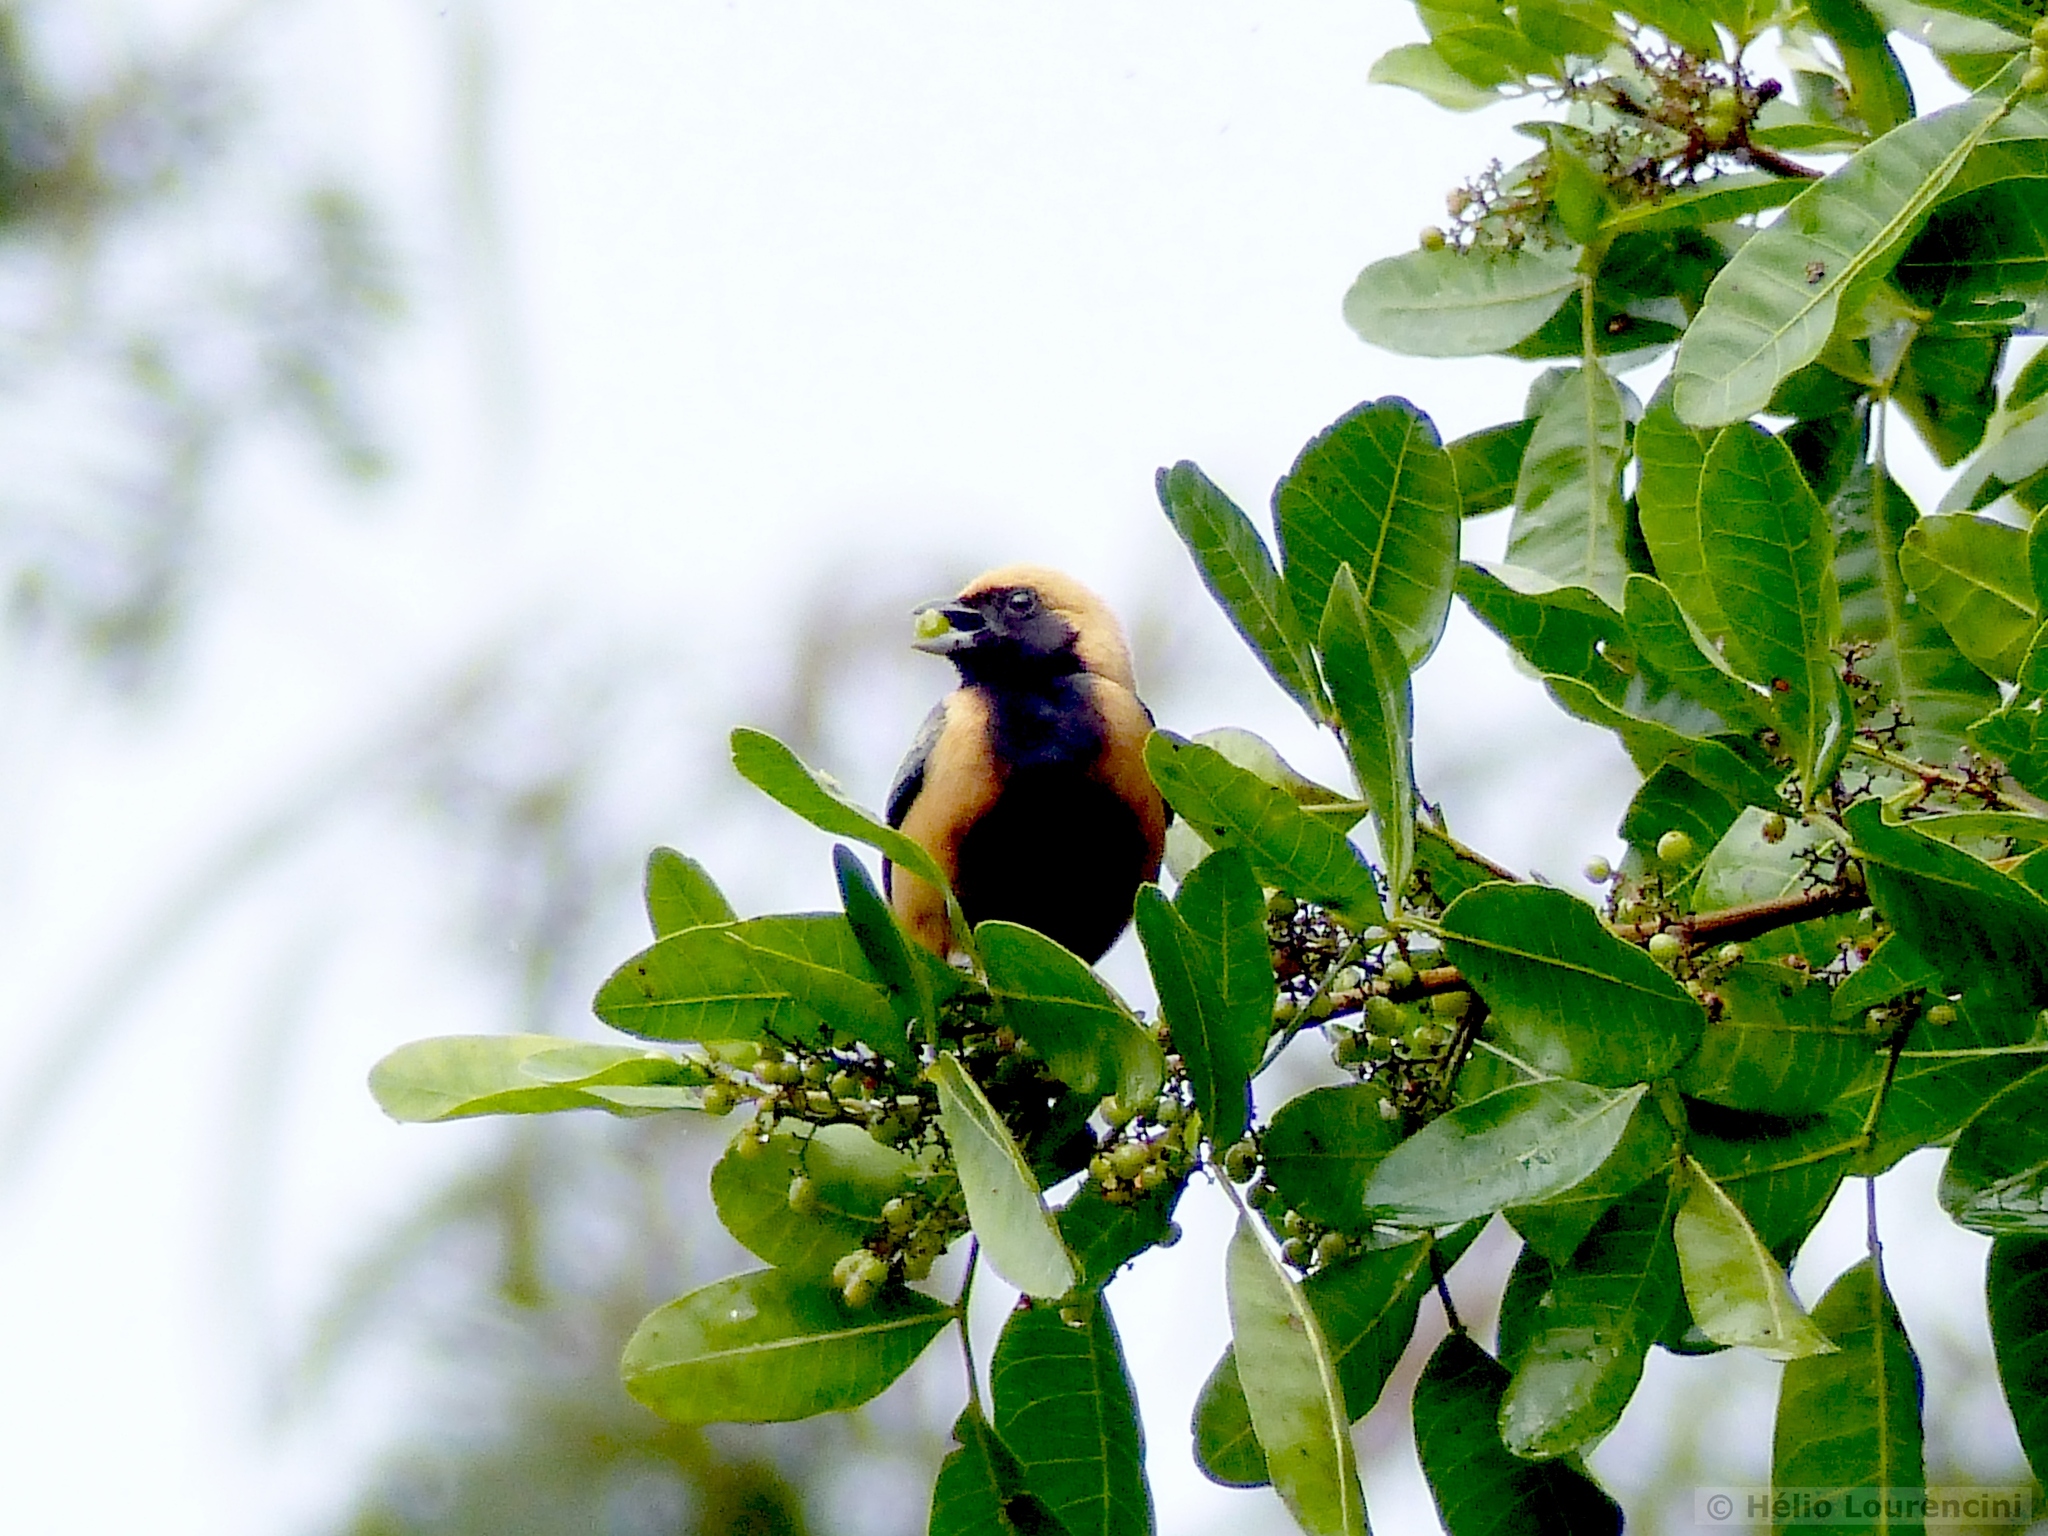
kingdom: Animalia
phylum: Chordata
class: Aves
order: Passeriformes
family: Thraupidae
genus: Stilpnia
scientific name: Stilpnia cayana
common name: Burnished-buff tanager
